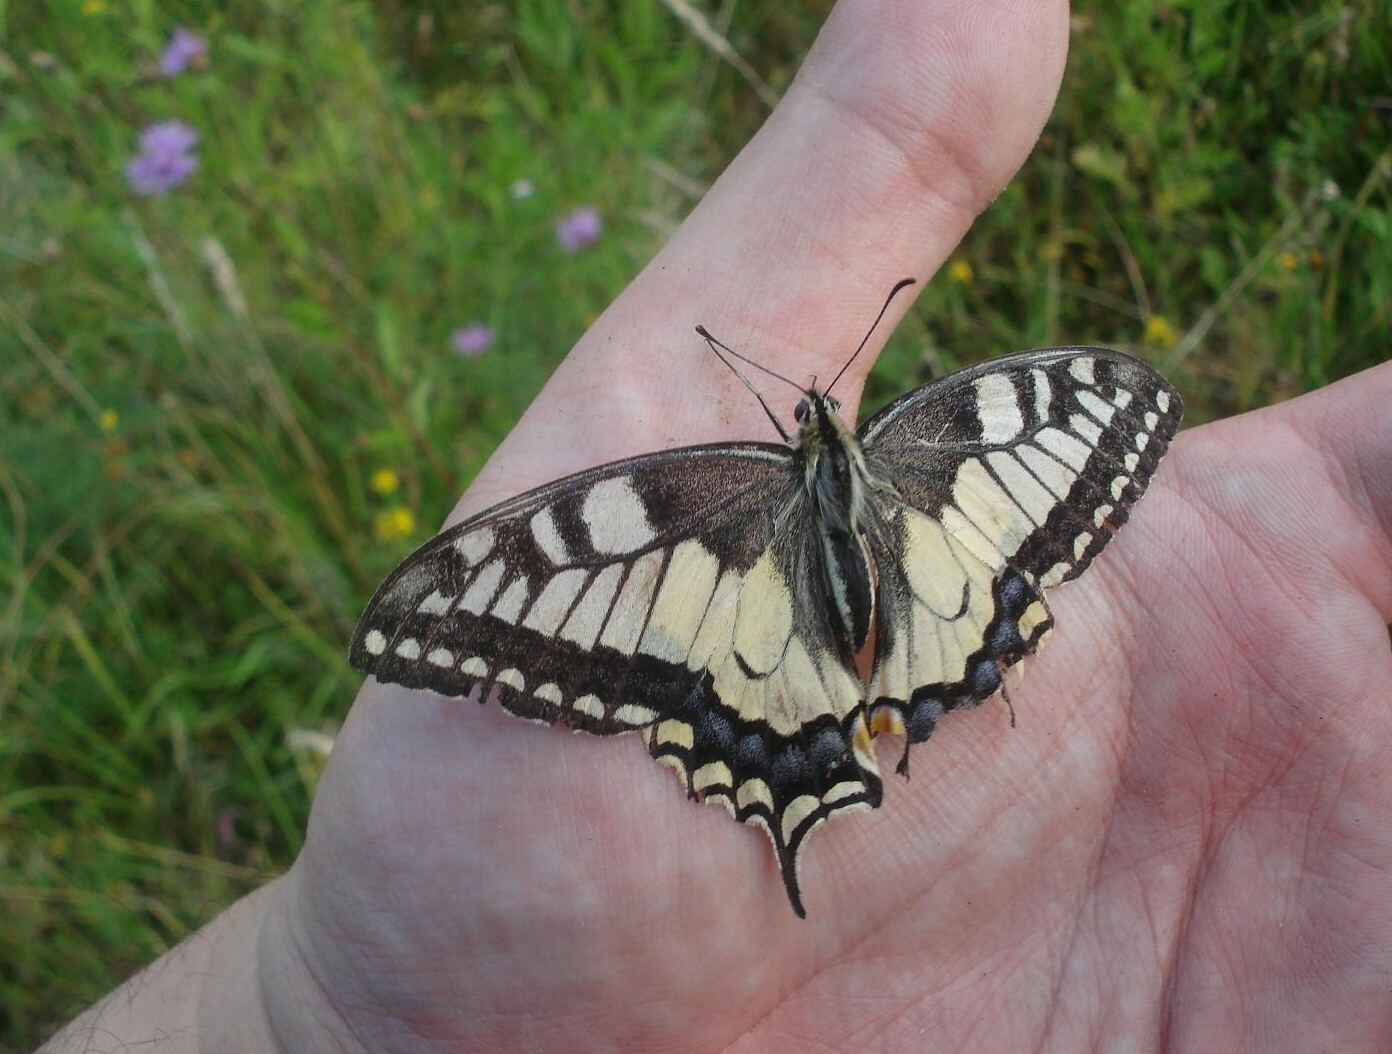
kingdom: Animalia
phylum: Arthropoda
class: Insecta
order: Lepidoptera
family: Papilionidae
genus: Papilio
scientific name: Papilio machaon
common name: Swallowtail
